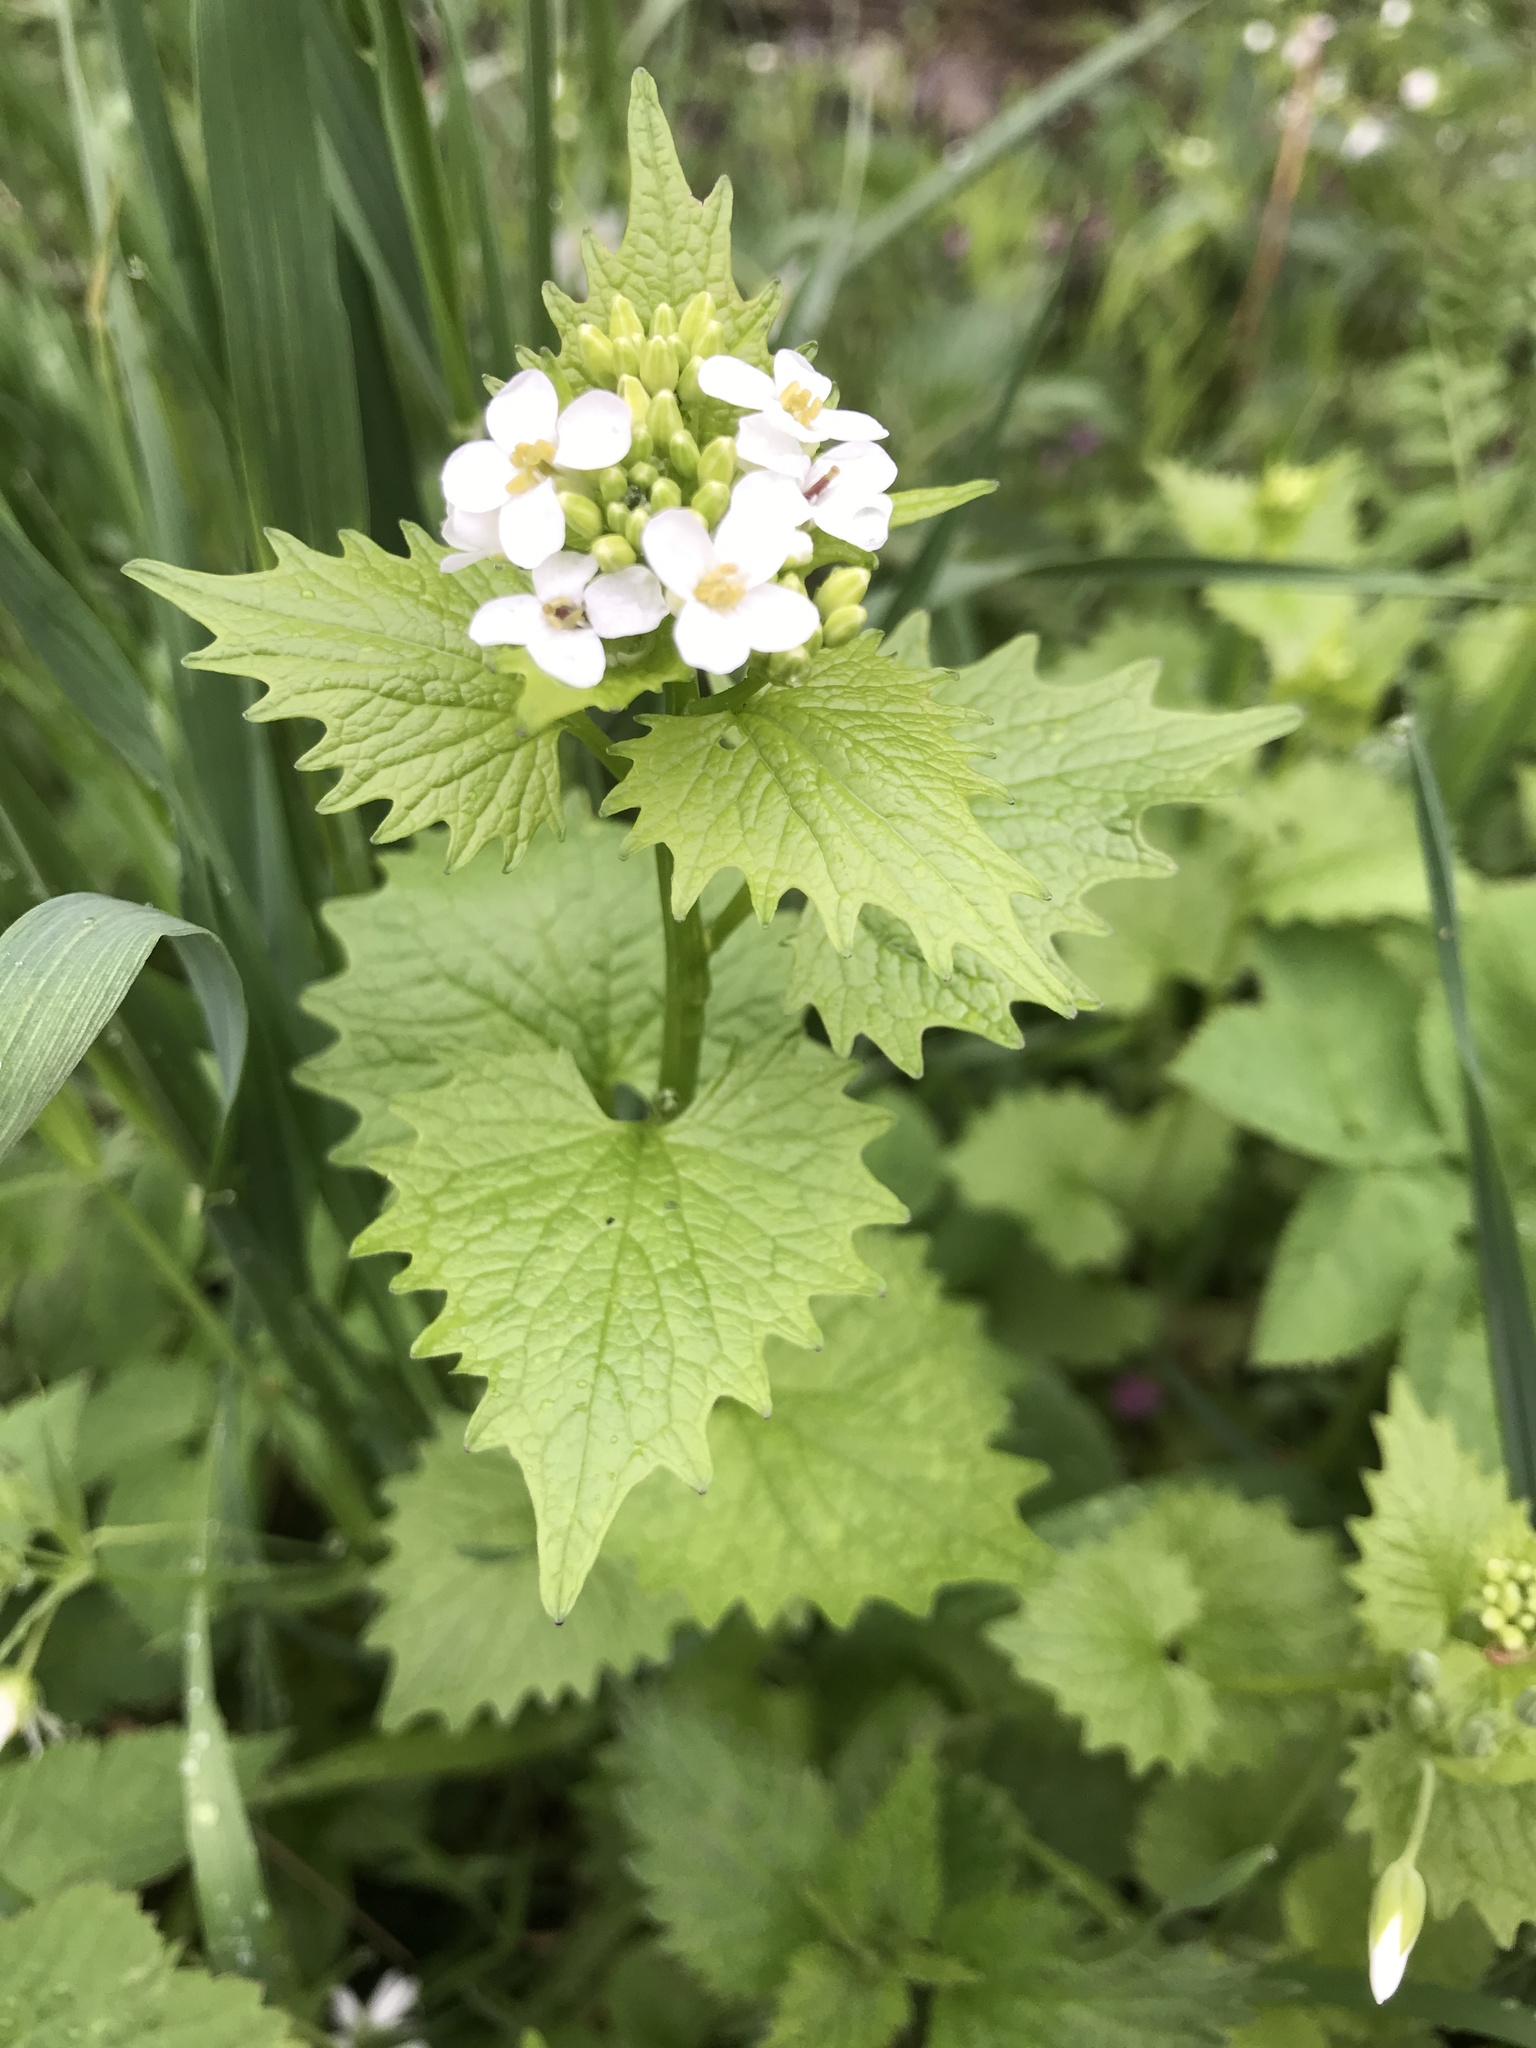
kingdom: Plantae
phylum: Tracheophyta
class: Magnoliopsida
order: Brassicales
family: Brassicaceae
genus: Alliaria
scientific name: Alliaria petiolata
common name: Garlic mustard
